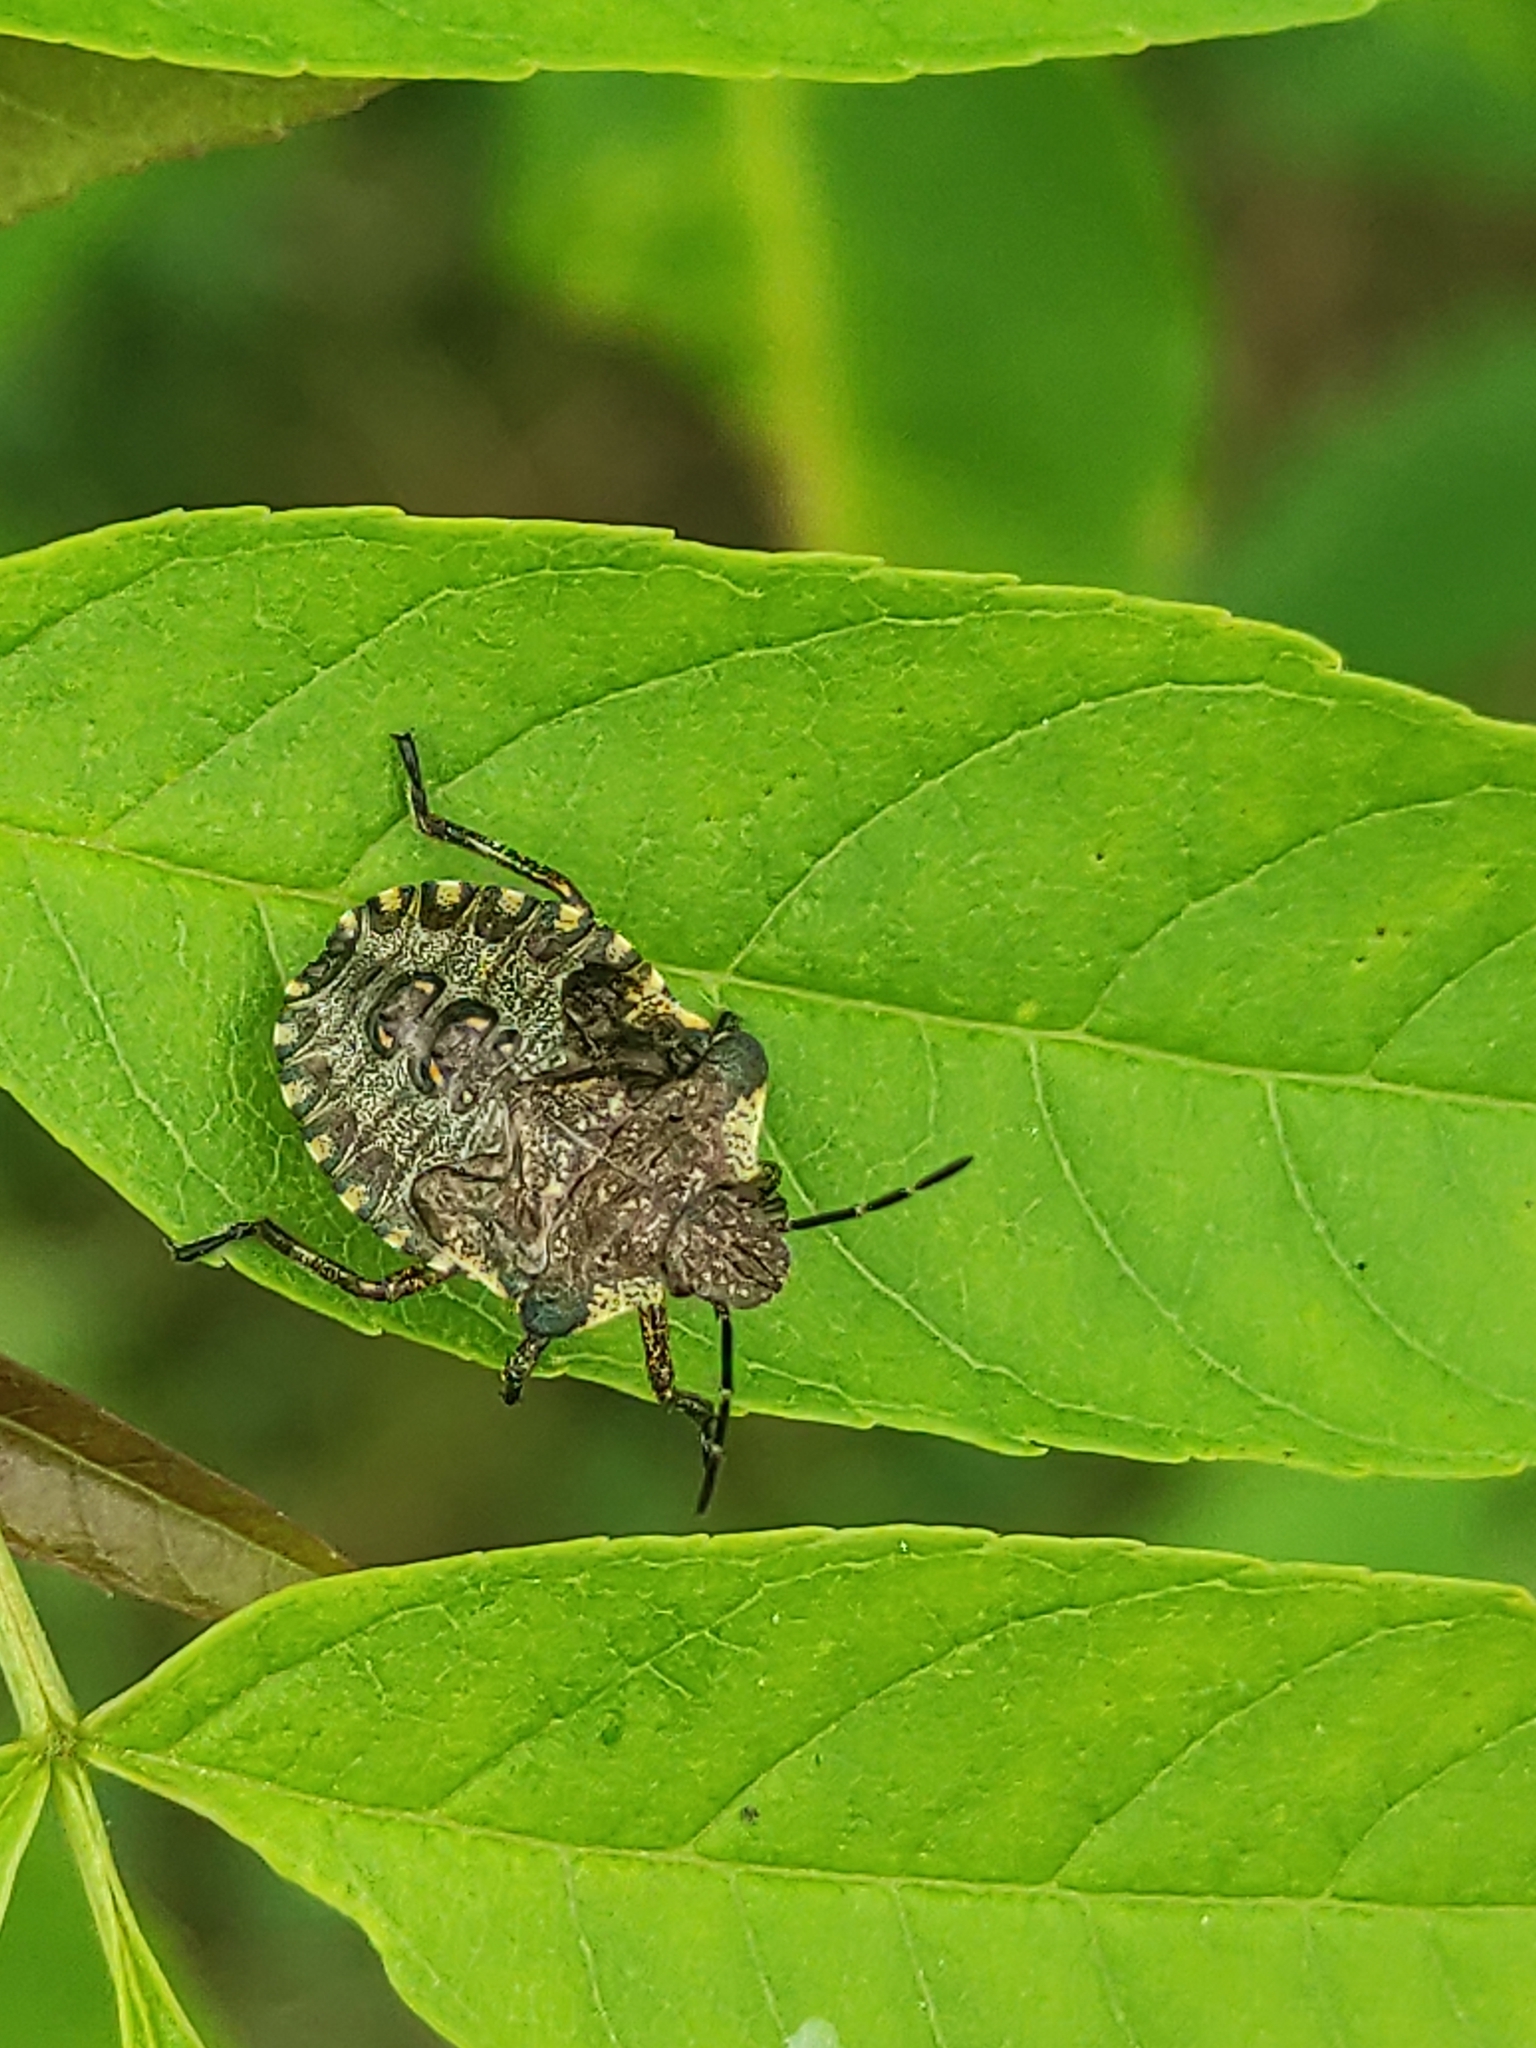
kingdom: Animalia
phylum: Arthropoda
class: Insecta
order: Hemiptera
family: Pentatomidae
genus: Pentatoma
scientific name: Pentatoma rufipes
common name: Forest bug
